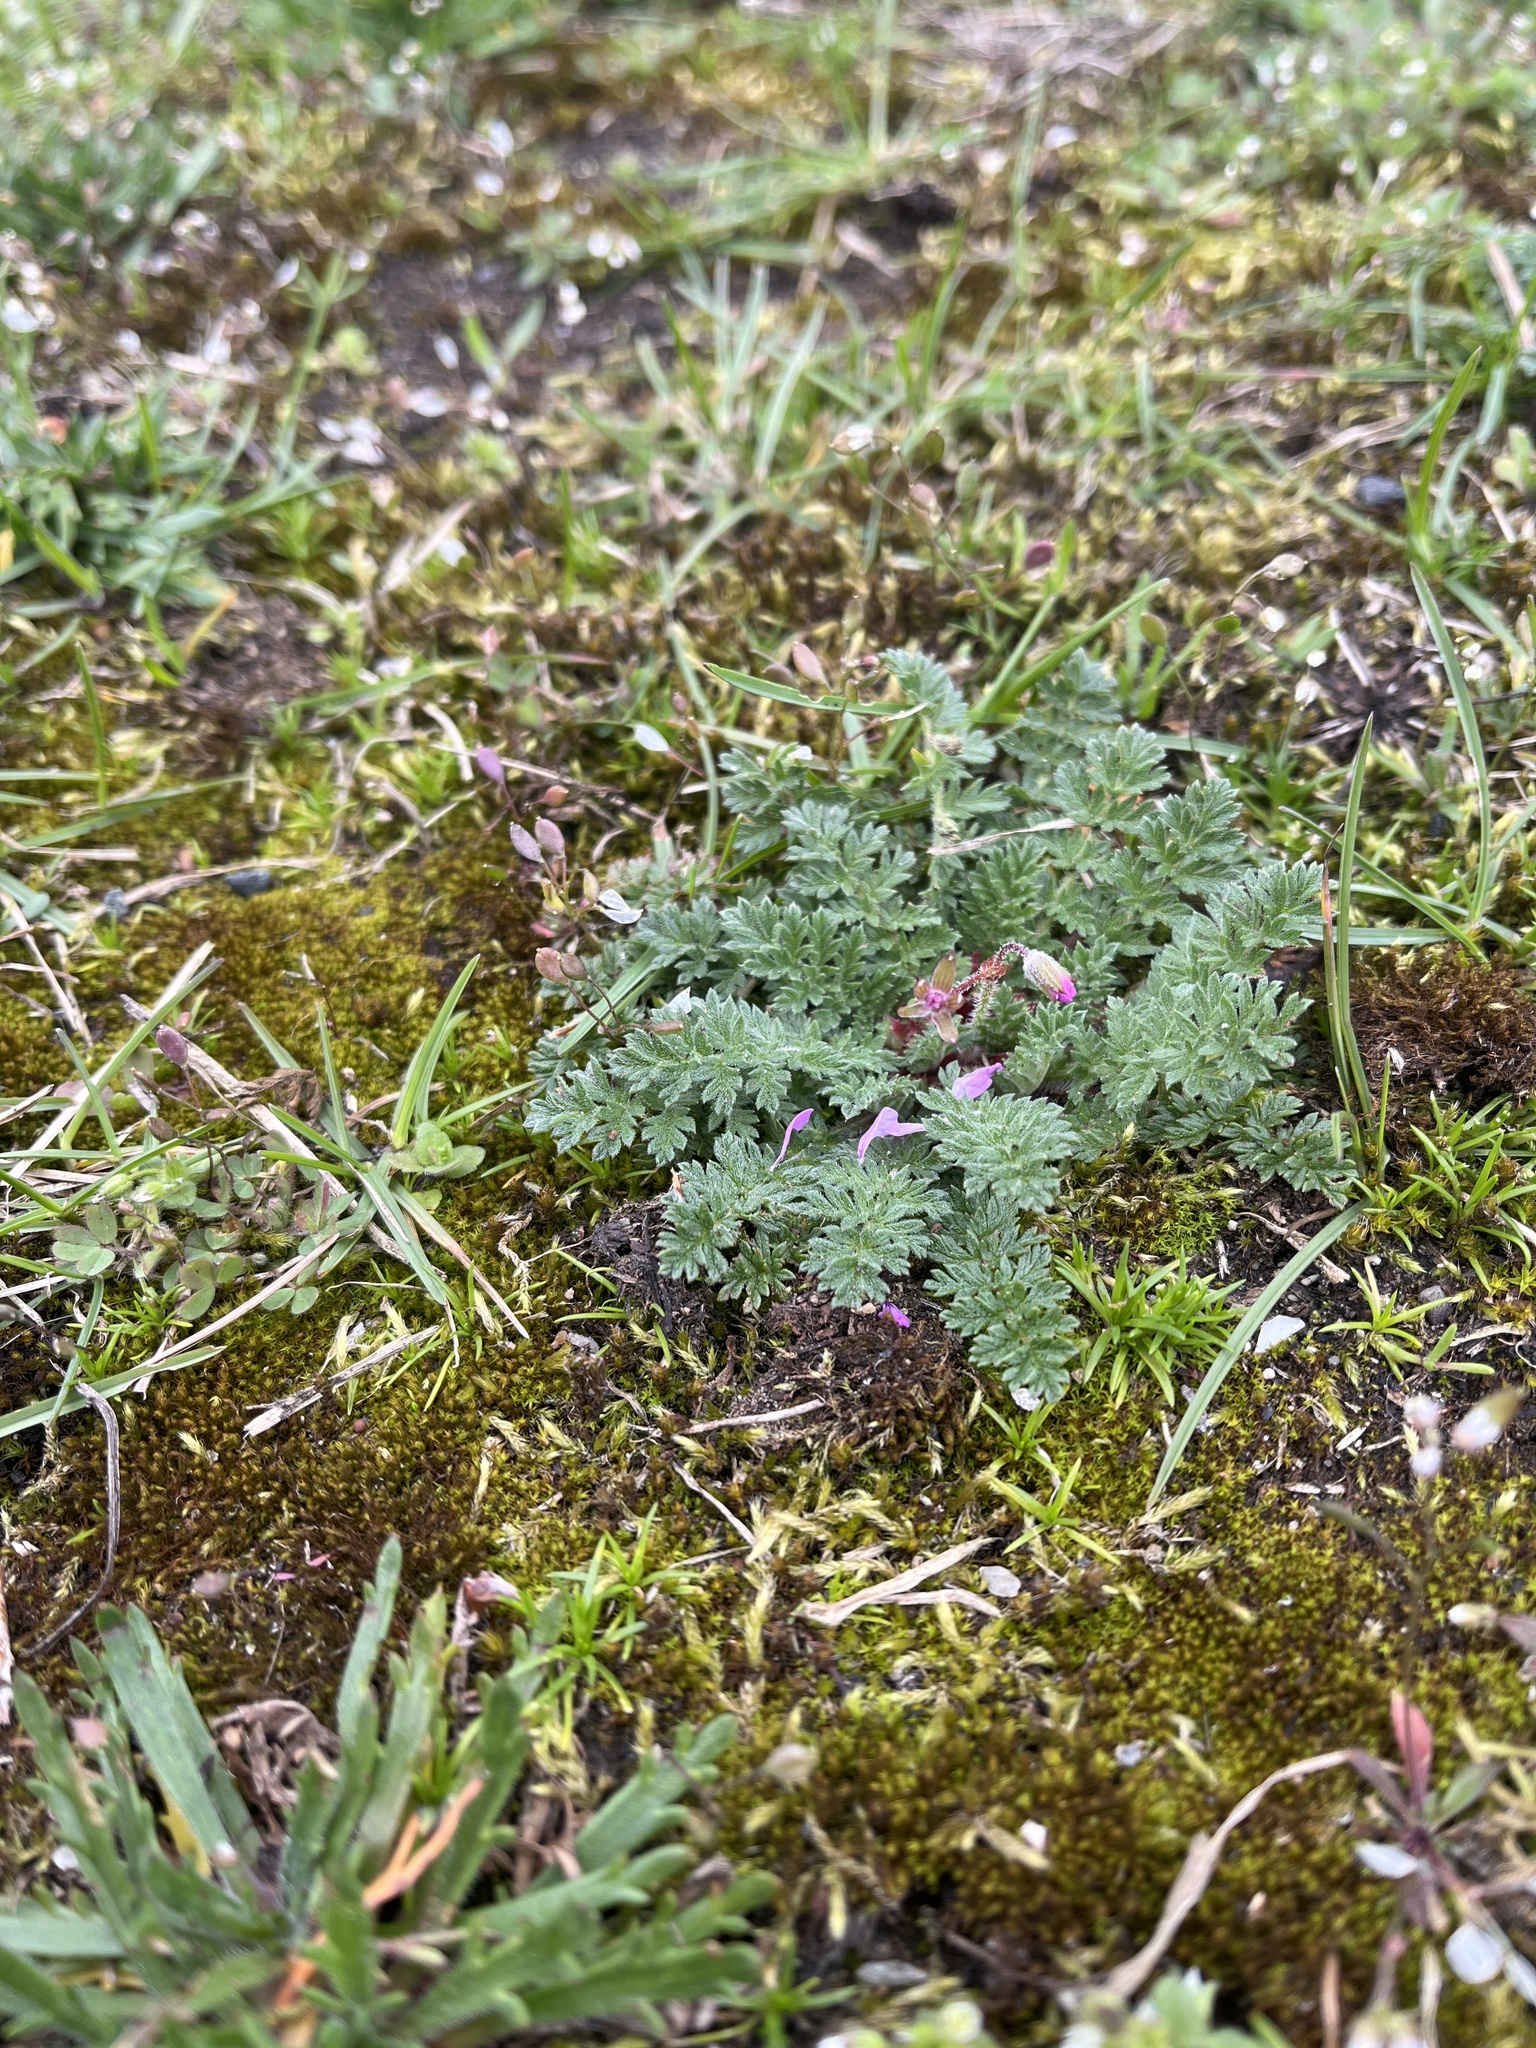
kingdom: Plantae
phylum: Tracheophyta
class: Magnoliopsida
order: Geraniales
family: Geraniaceae
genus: Erodium
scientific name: Erodium cicutarium
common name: Common stork's-bill
